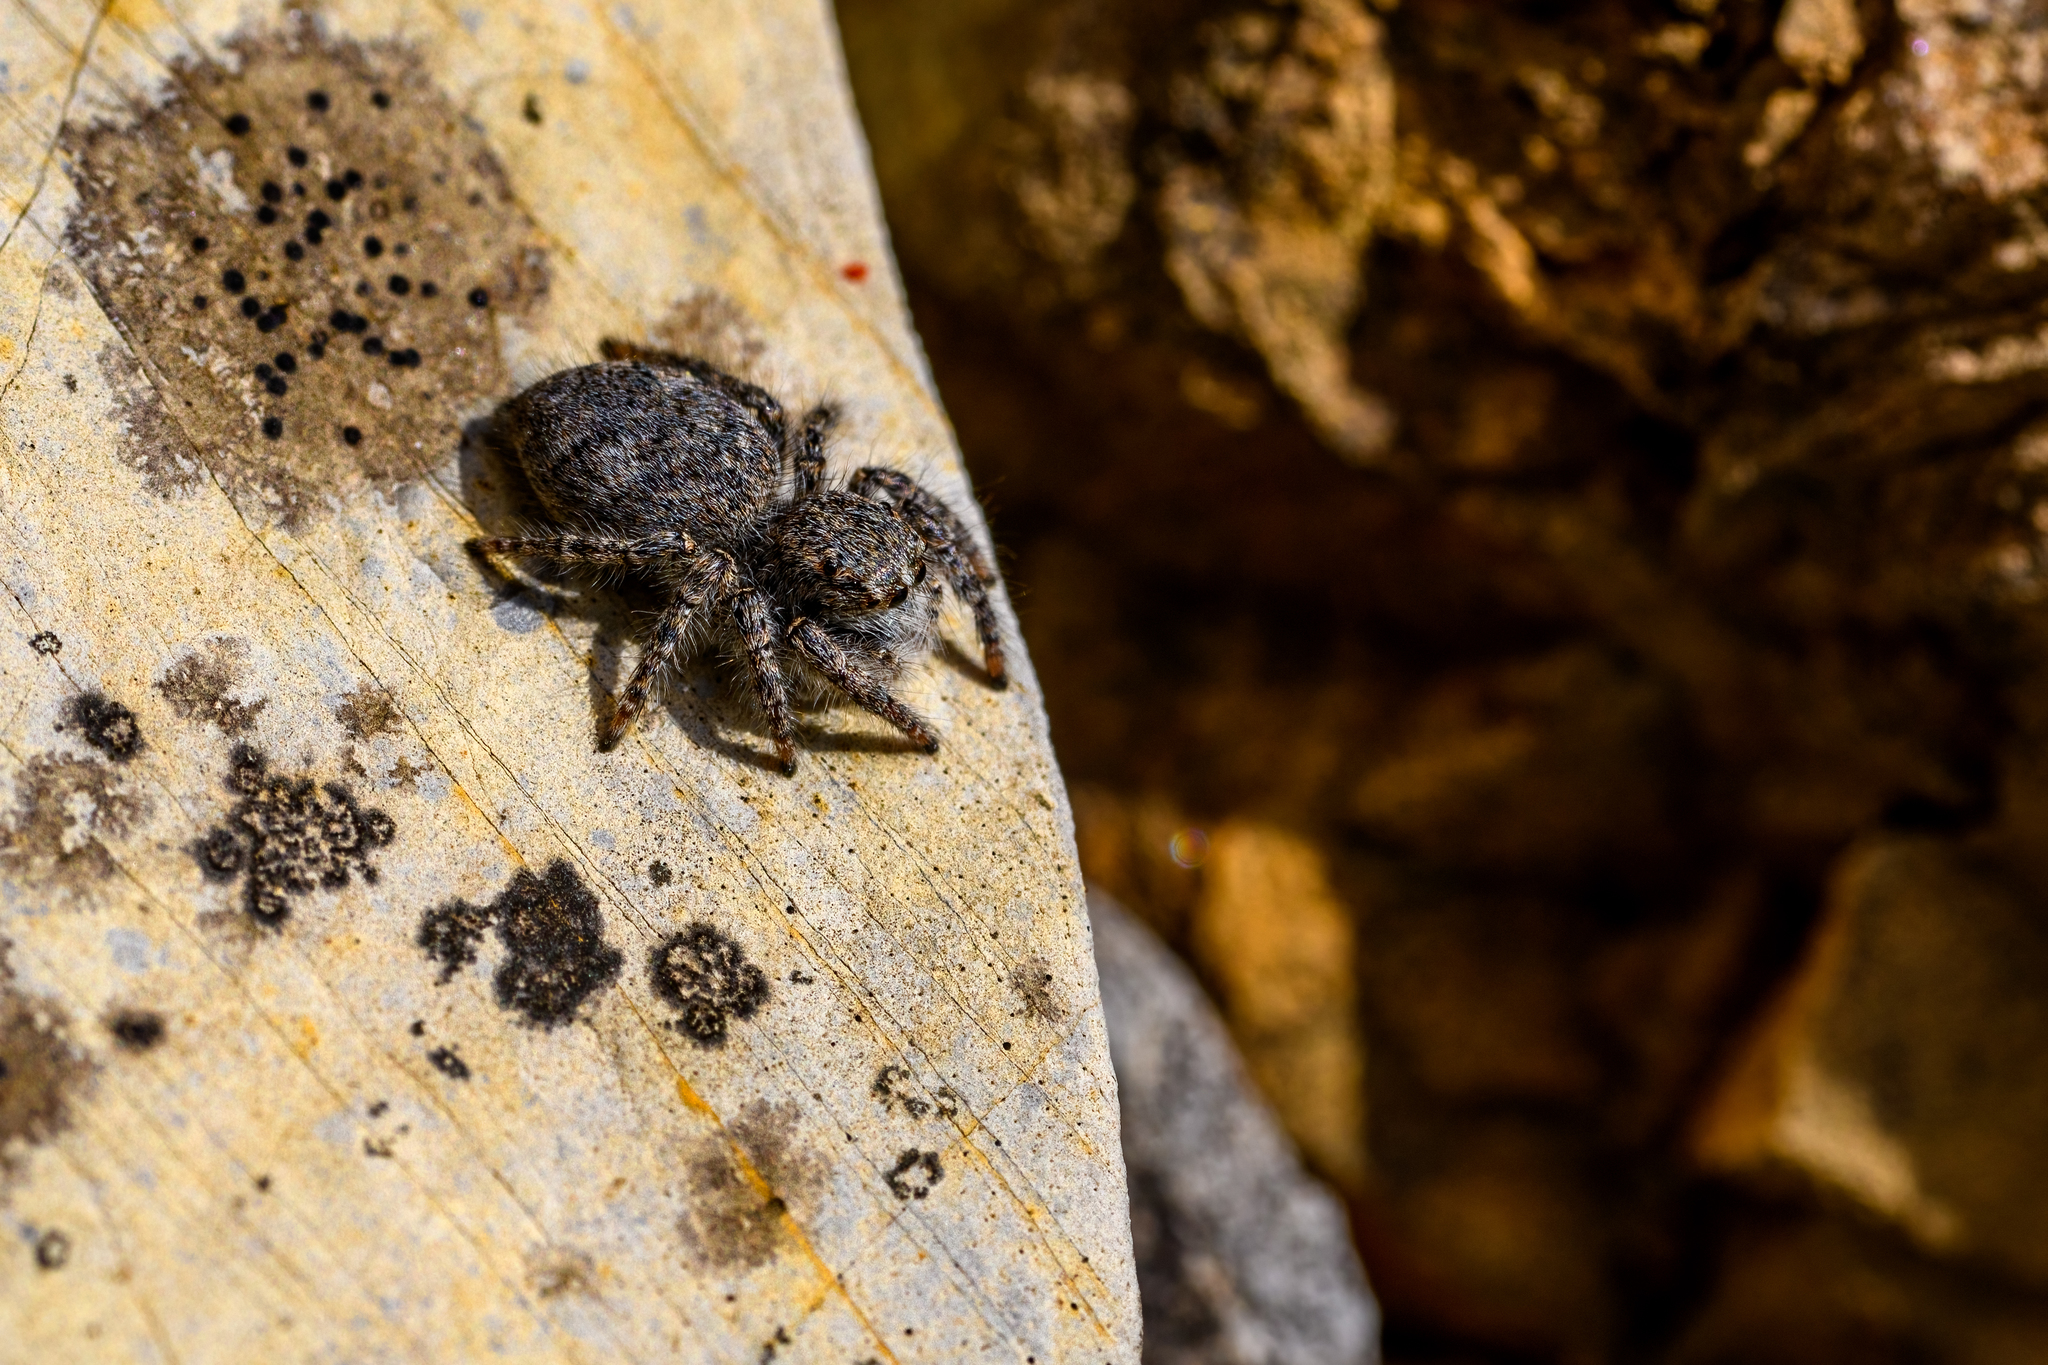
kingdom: Animalia
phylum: Arthropoda
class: Arachnida
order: Araneae
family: Salticidae
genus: Philaeus
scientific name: Philaeus chrysops
